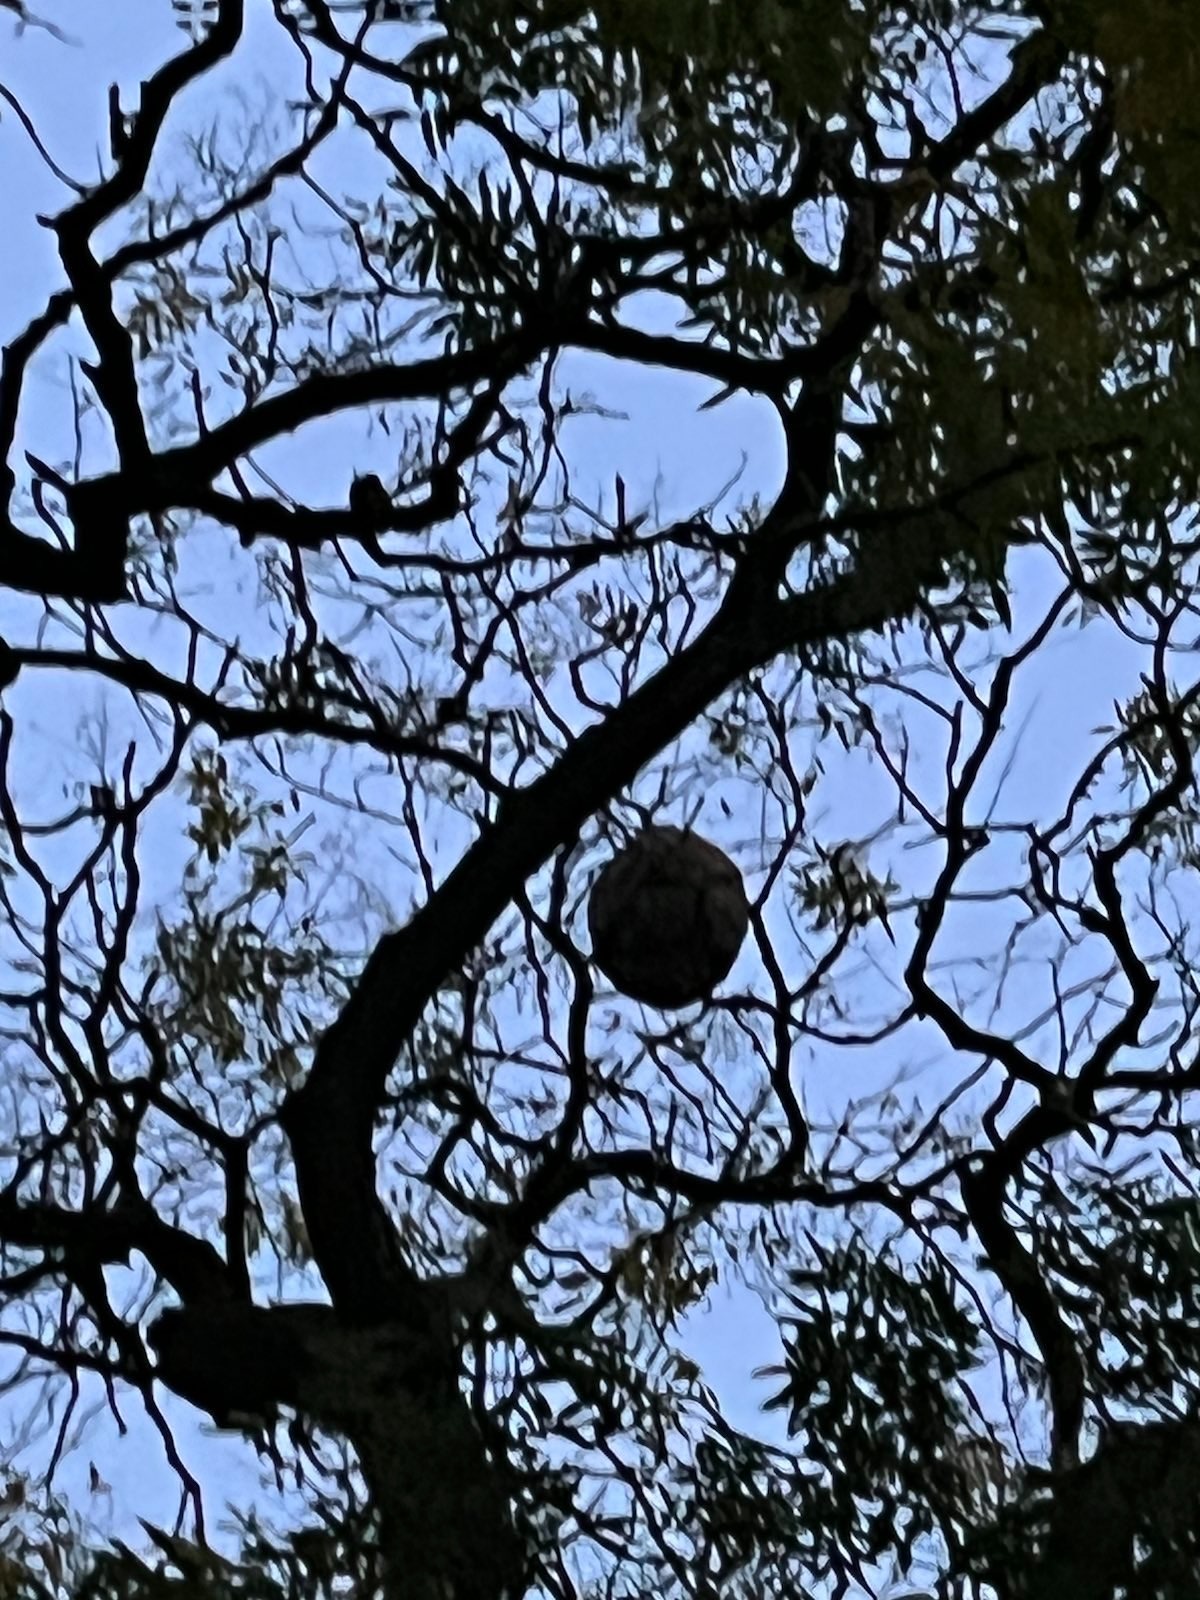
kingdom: Animalia
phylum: Arthropoda
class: Insecta
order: Hymenoptera
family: Vespidae
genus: Vespa
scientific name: Vespa velutina
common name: Asian hornet
